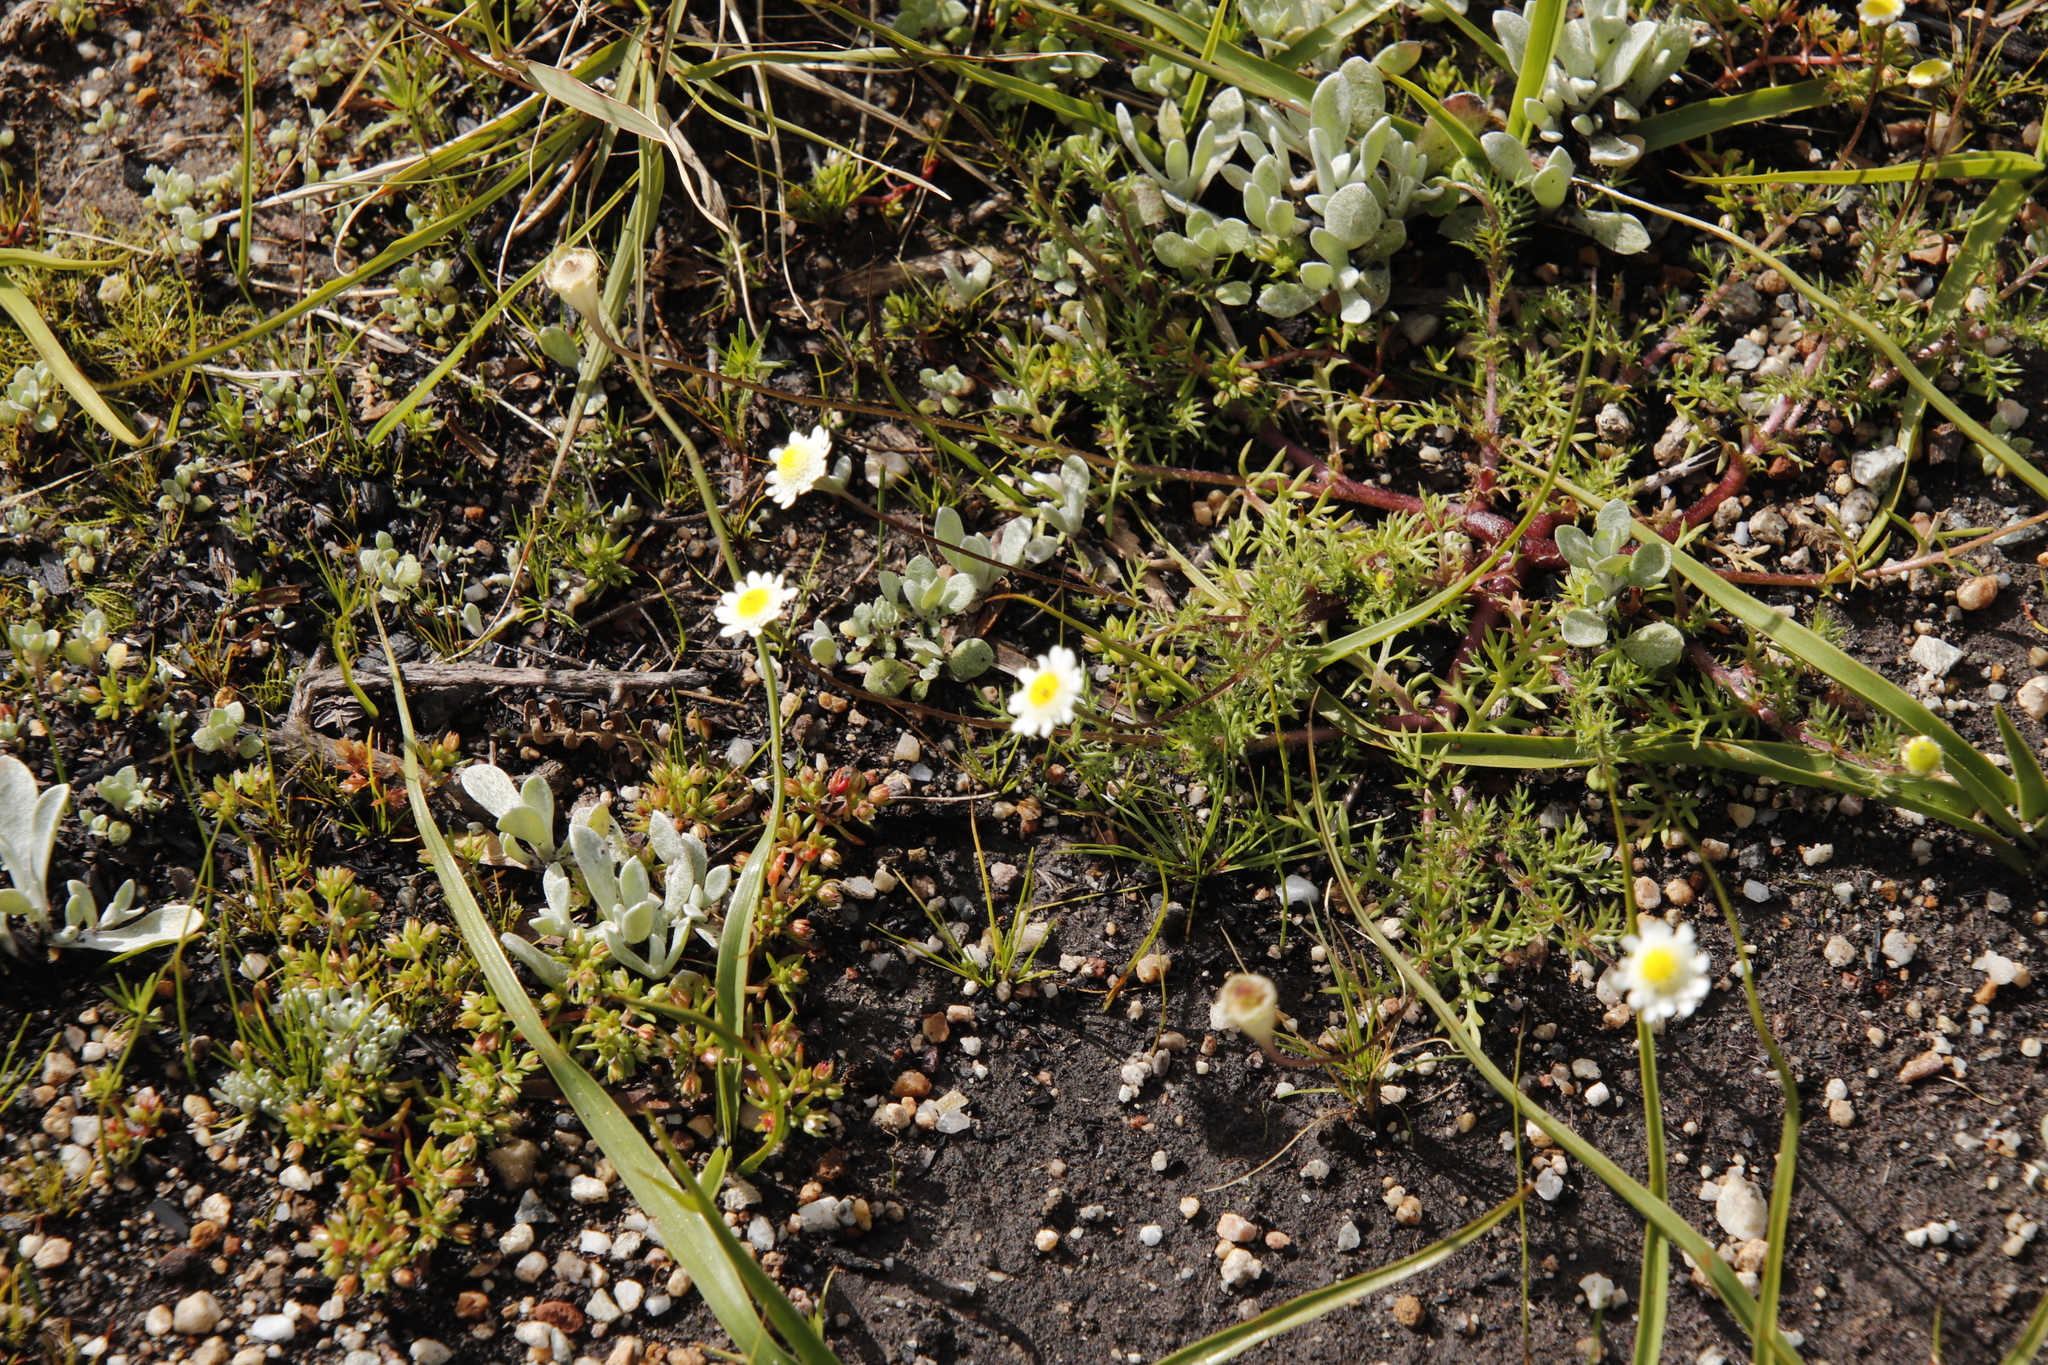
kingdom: Plantae
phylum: Tracheophyta
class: Magnoliopsida
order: Asterales
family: Asteraceae
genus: Cotula
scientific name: Cotula turbinata
